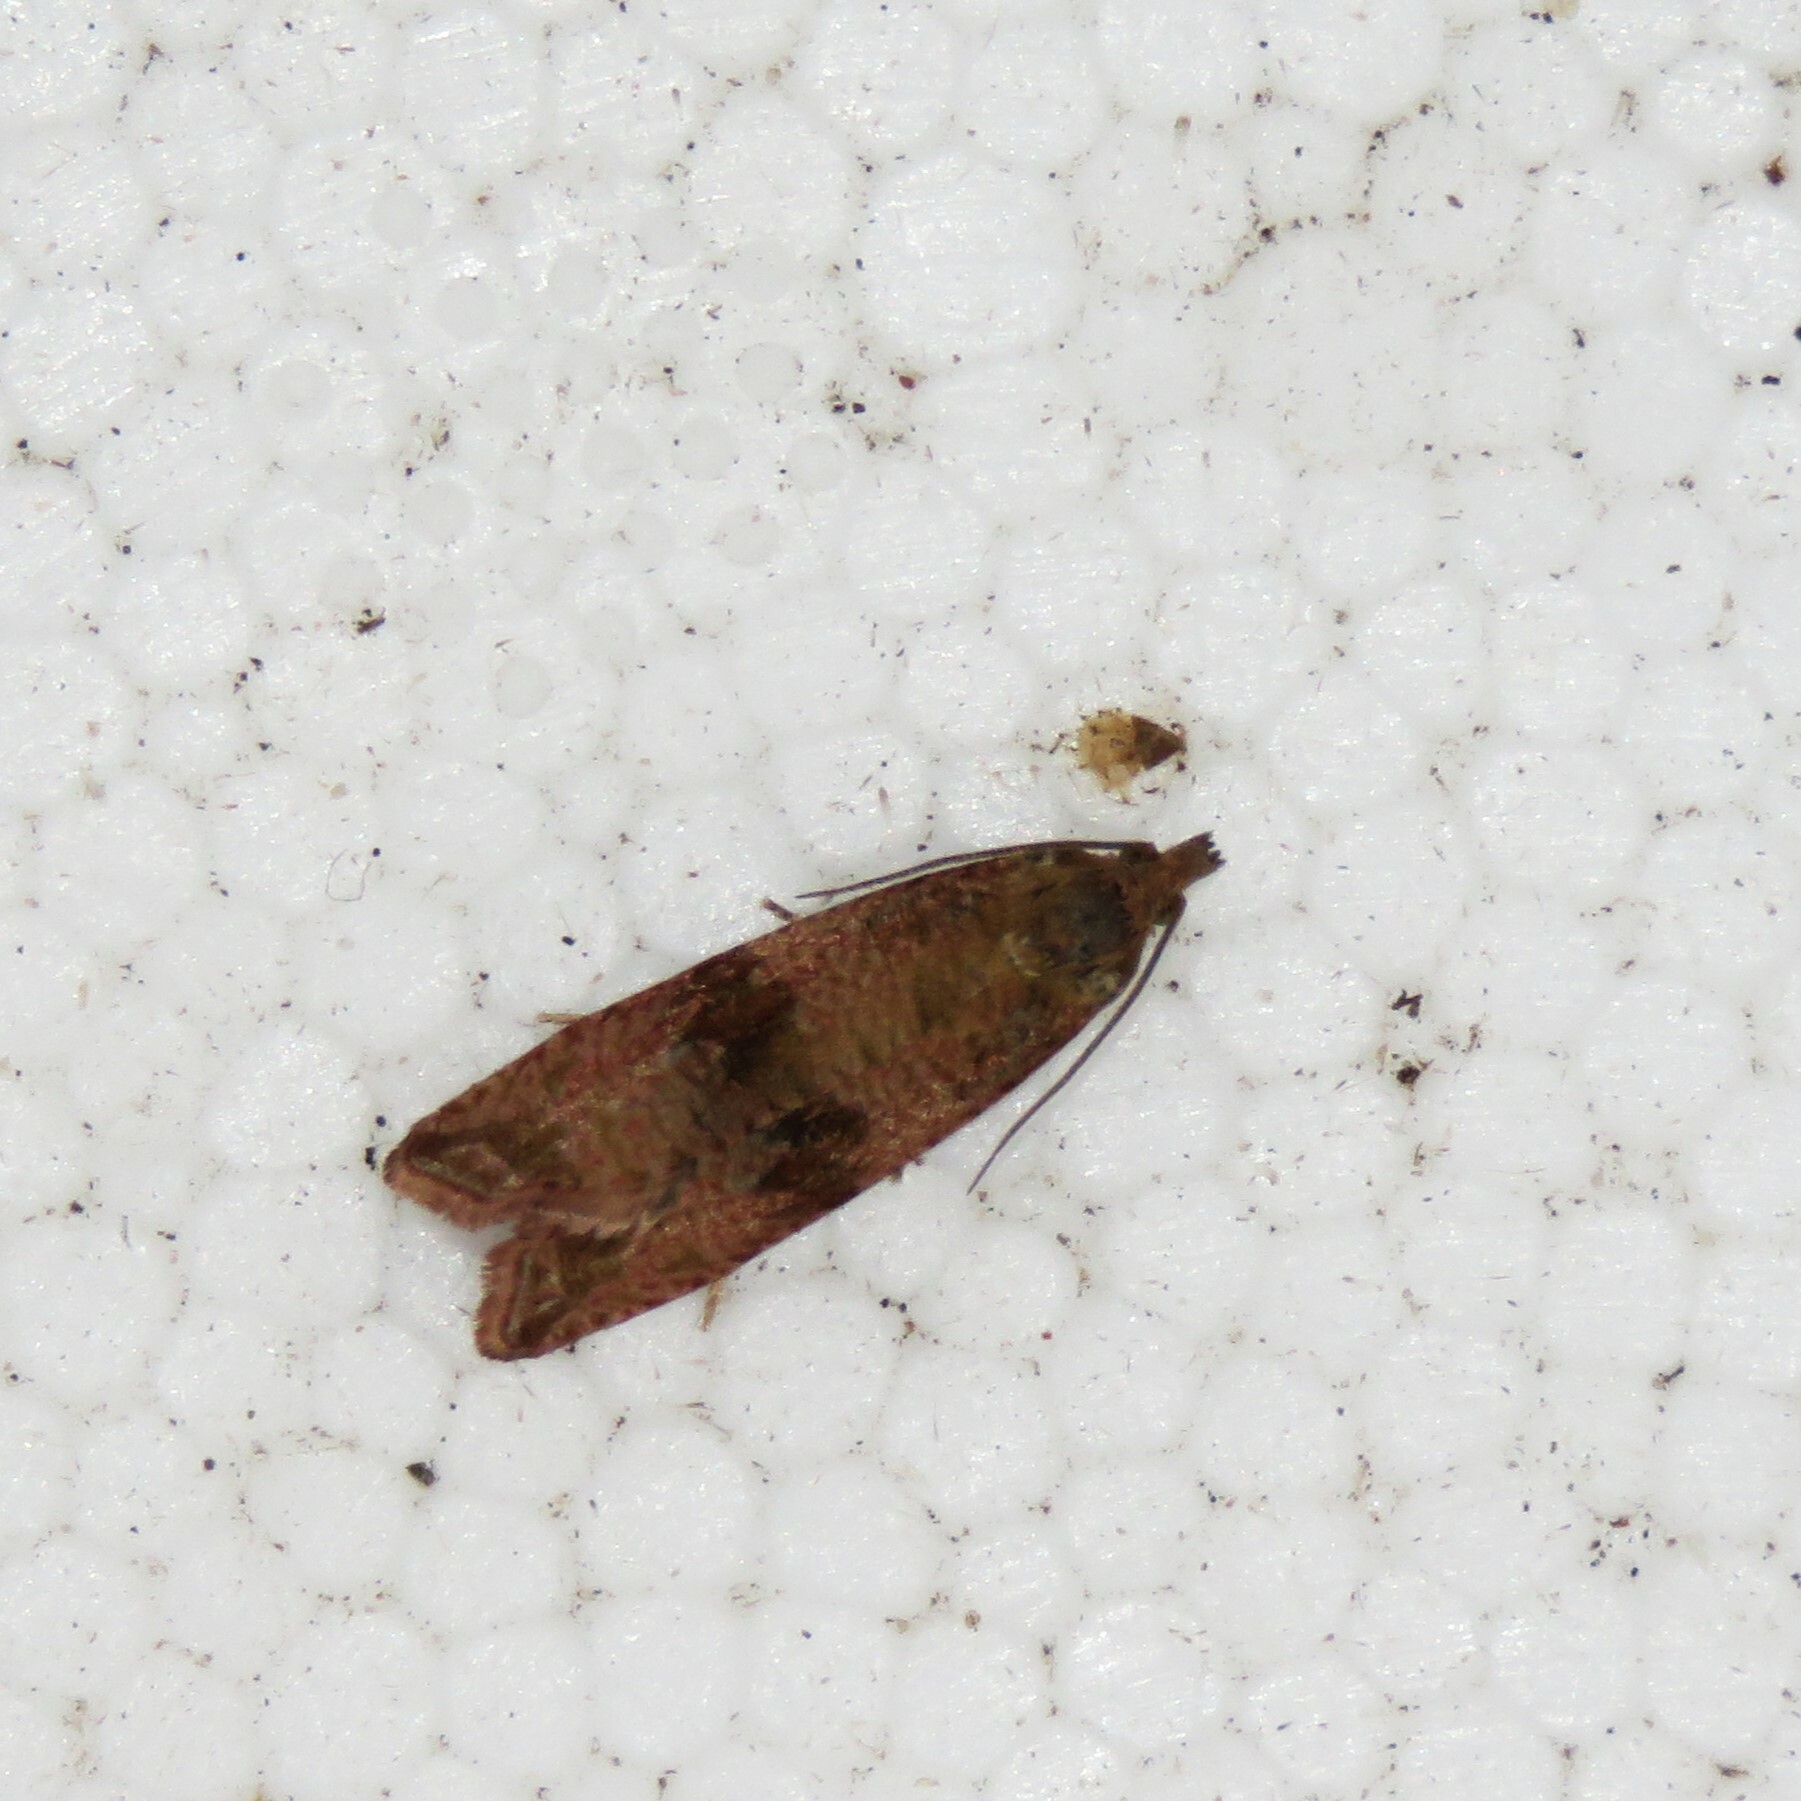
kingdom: Animalia
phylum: Arthropoda
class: Insecta
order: Lepidoptera
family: Tortricidae
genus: Celypha
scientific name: Celypha striana
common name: Barred marble
